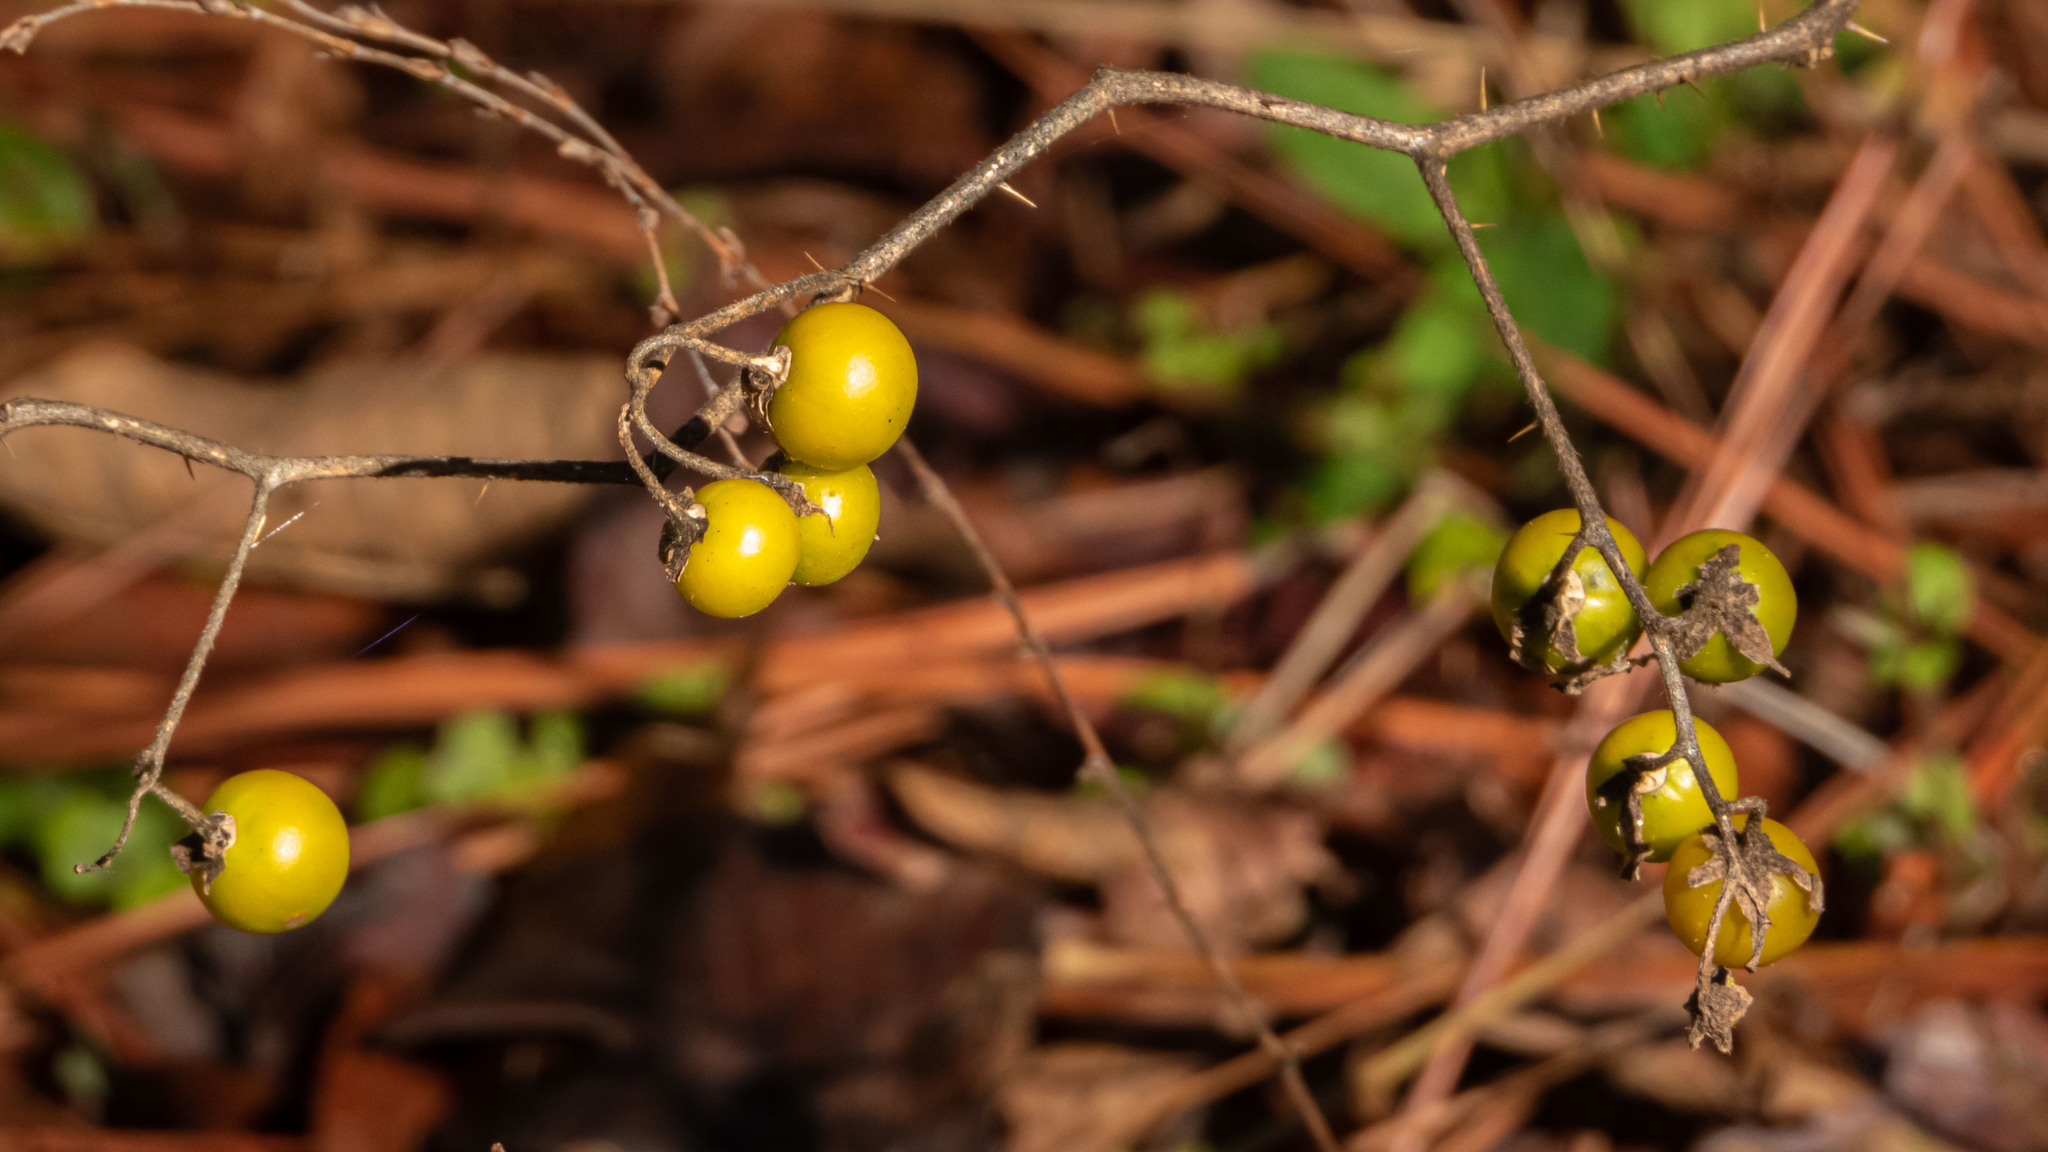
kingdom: Plantae
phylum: Tracheophyta
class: Magnoliopsida
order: Solanales
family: Solanaceae
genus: Solanum
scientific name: Solanum carolinense
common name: Horse-nettle
